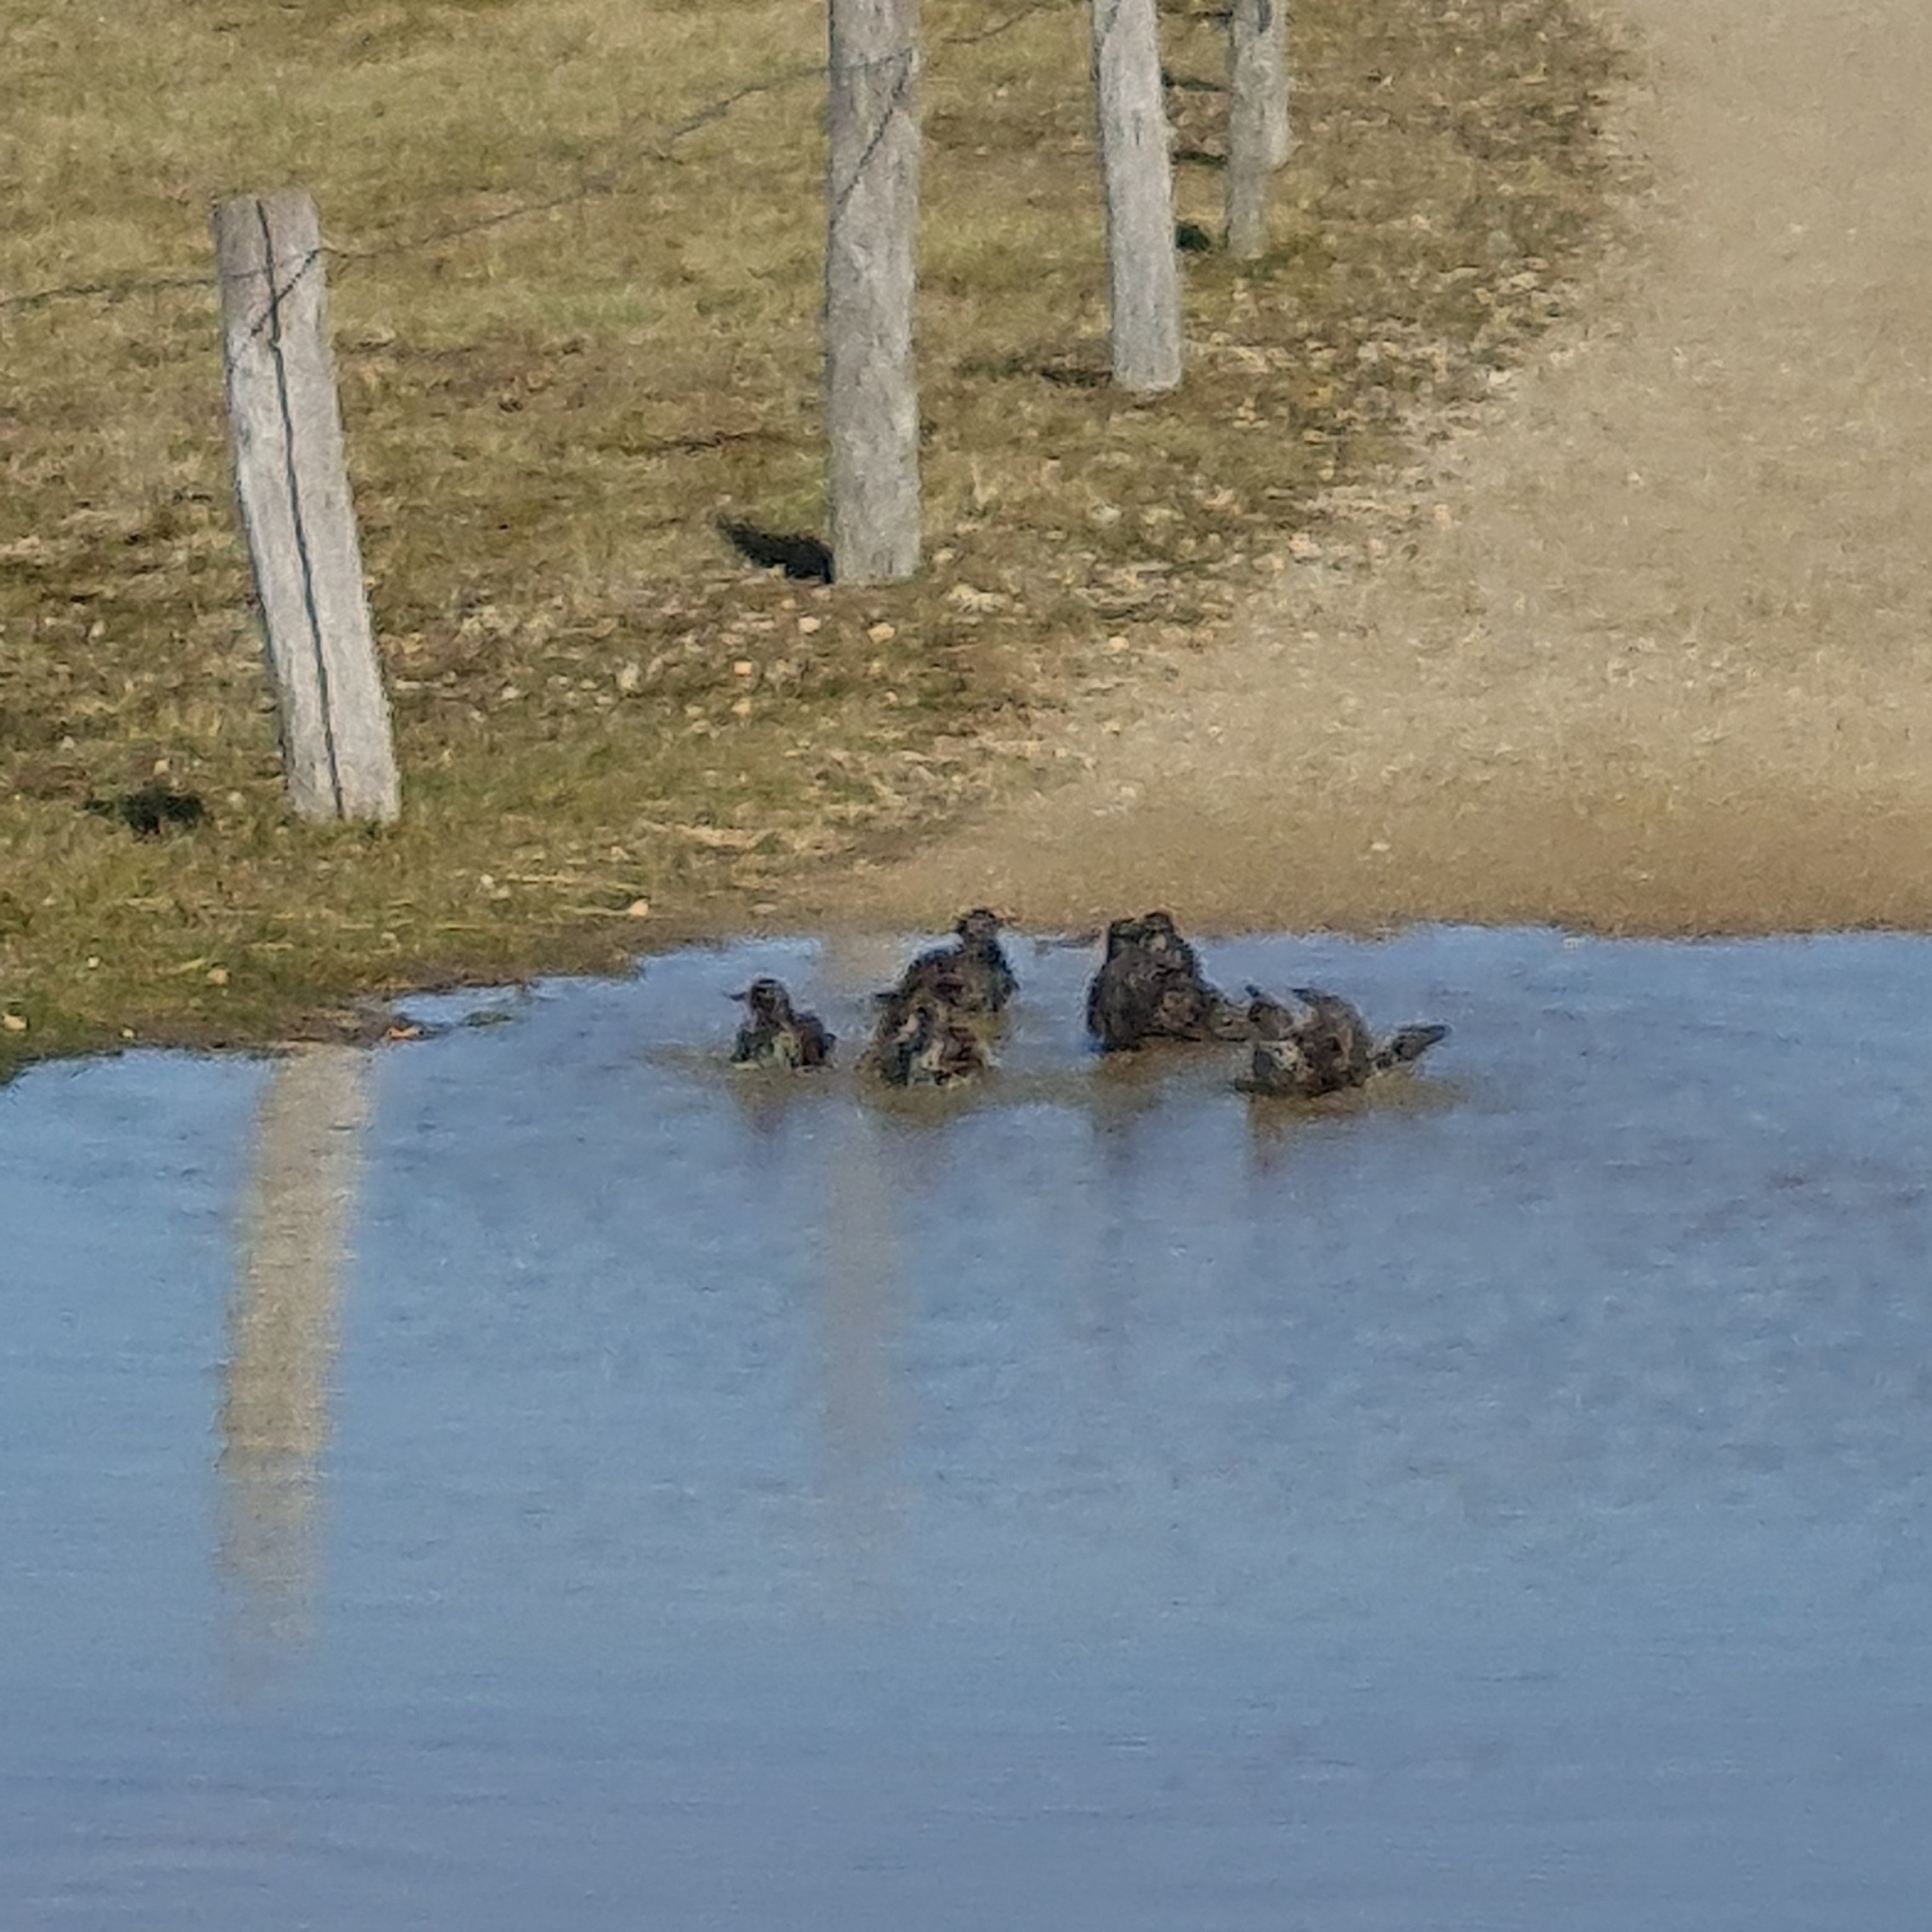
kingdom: Animalia
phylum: Chordata
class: Aves
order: Passeriformes
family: Sturnidae
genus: Sturnus
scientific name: Sturnus vulgaris
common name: Common starling
